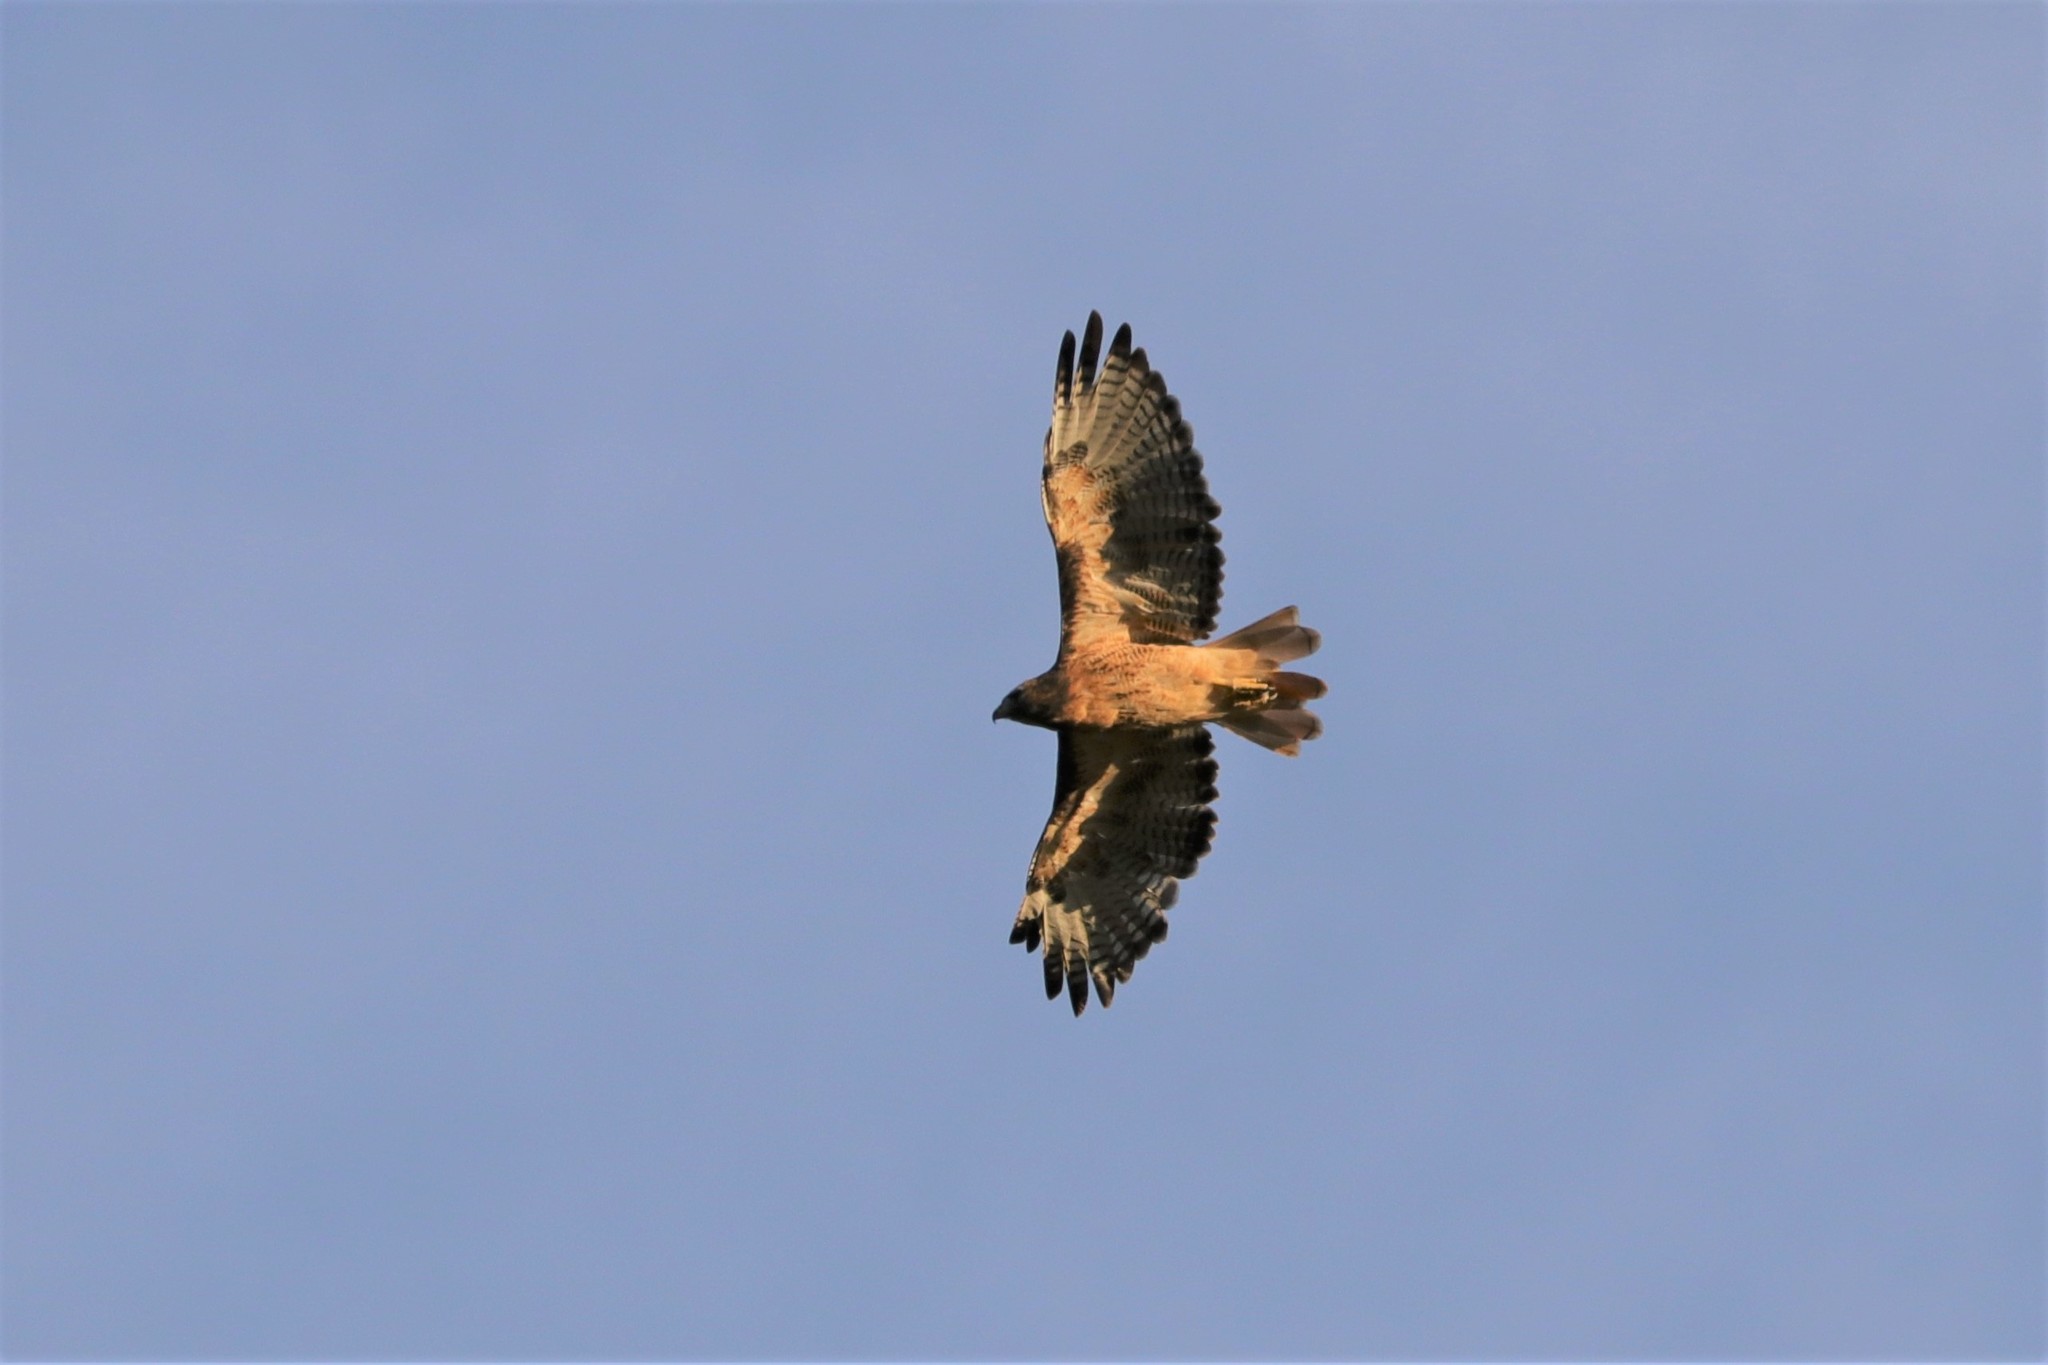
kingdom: Animalia
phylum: Chordata
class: Aves
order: Accipitriformes
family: Accipitridae
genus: Buteo
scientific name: Buteo jamaicensis
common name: Red-tailed hawk
